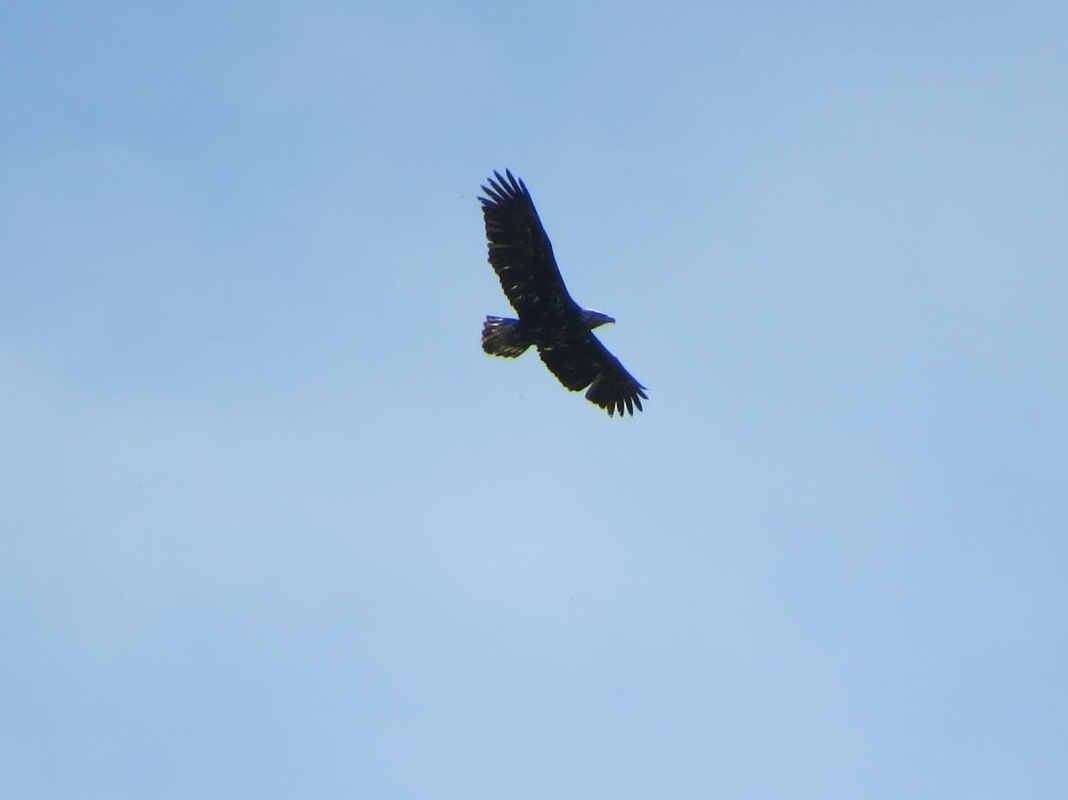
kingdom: Animalia
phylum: Chordata
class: Aves
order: Accipitriformes
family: Accipitridae
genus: Haliaeetus
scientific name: Haliaeetus leucocephalus
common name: Bald eagle
